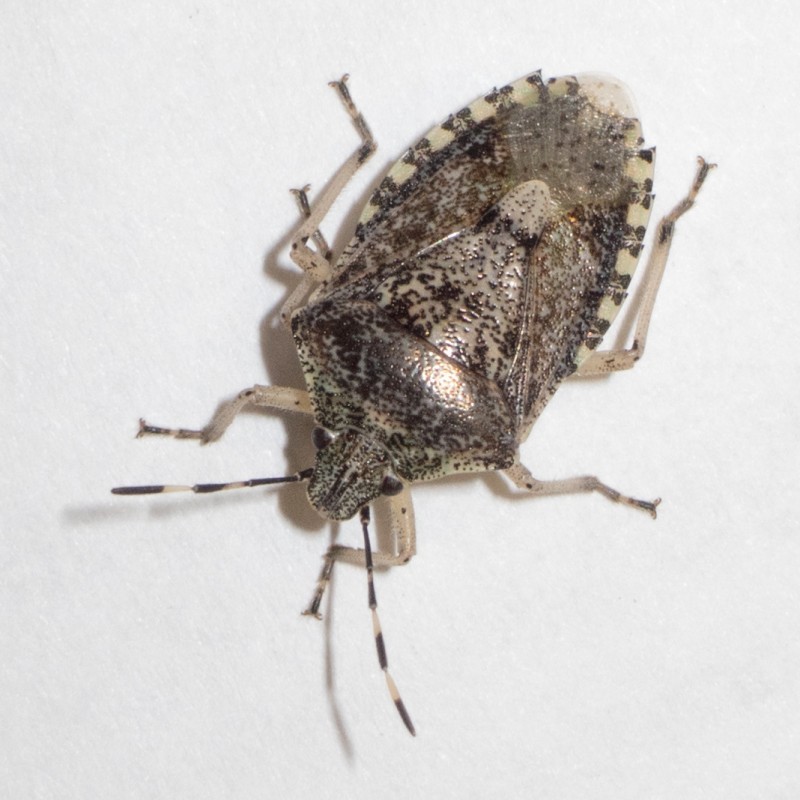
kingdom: Animalia
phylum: Arthropoda
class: Insecta
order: Hemiptera
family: Pentatomidae
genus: Rhaphigaster
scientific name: Rhaphigaster nebulosa
